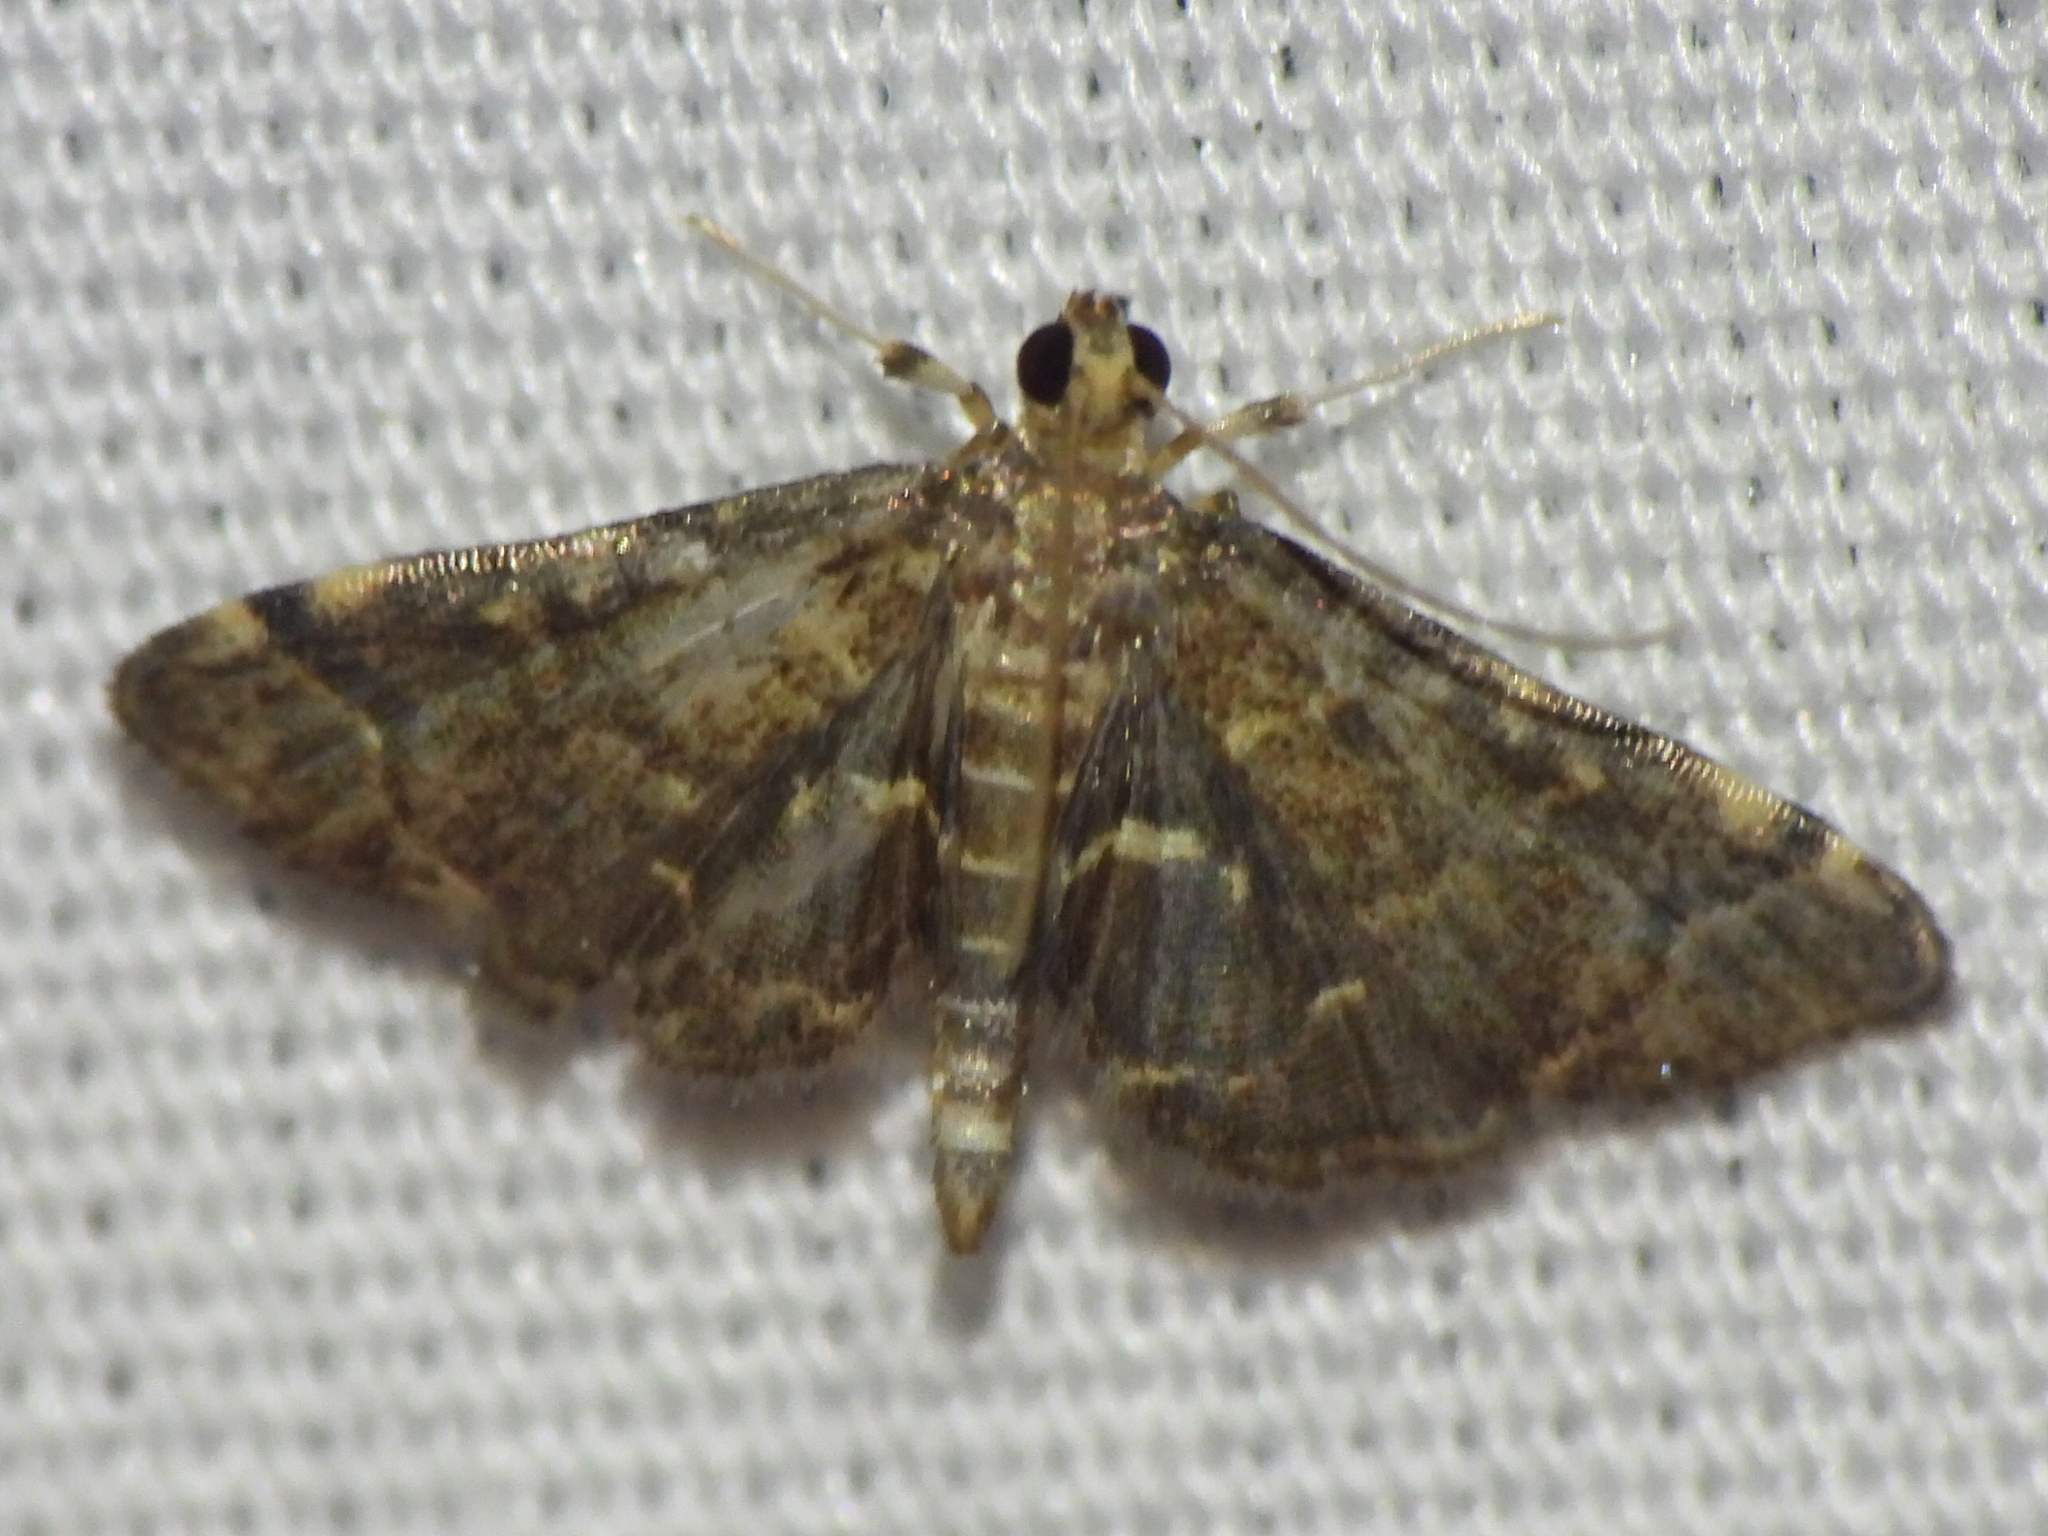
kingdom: Animalia
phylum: Arthropoda
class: Insecta
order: Lepidoptera
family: Crambidae
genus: Anageshna
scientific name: Anageshna primordialis
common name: Yellow-spotted webworm moth
